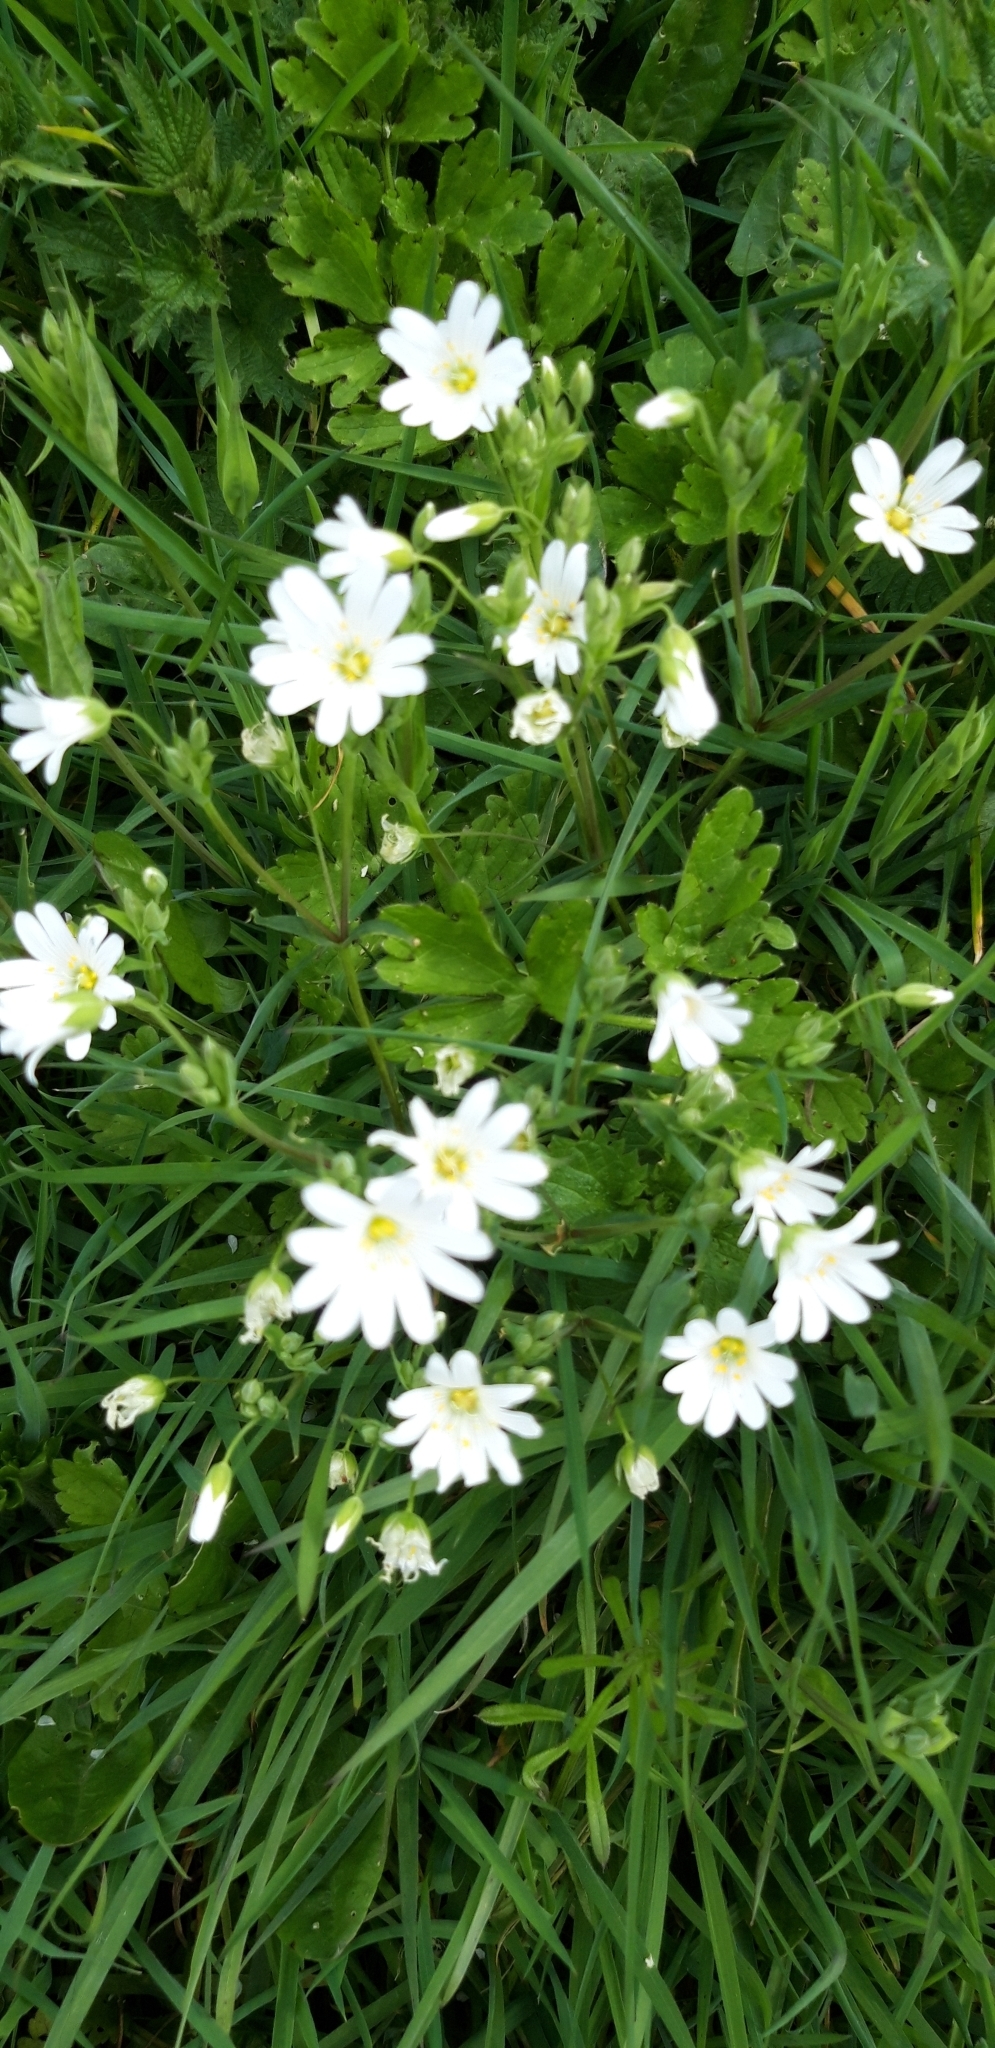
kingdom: Plantae
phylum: Tracheophyta
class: Magnoliopsida
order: Caryophyllales
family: Caryophyllaceae
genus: Rabelera
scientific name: Rabelera holostea
